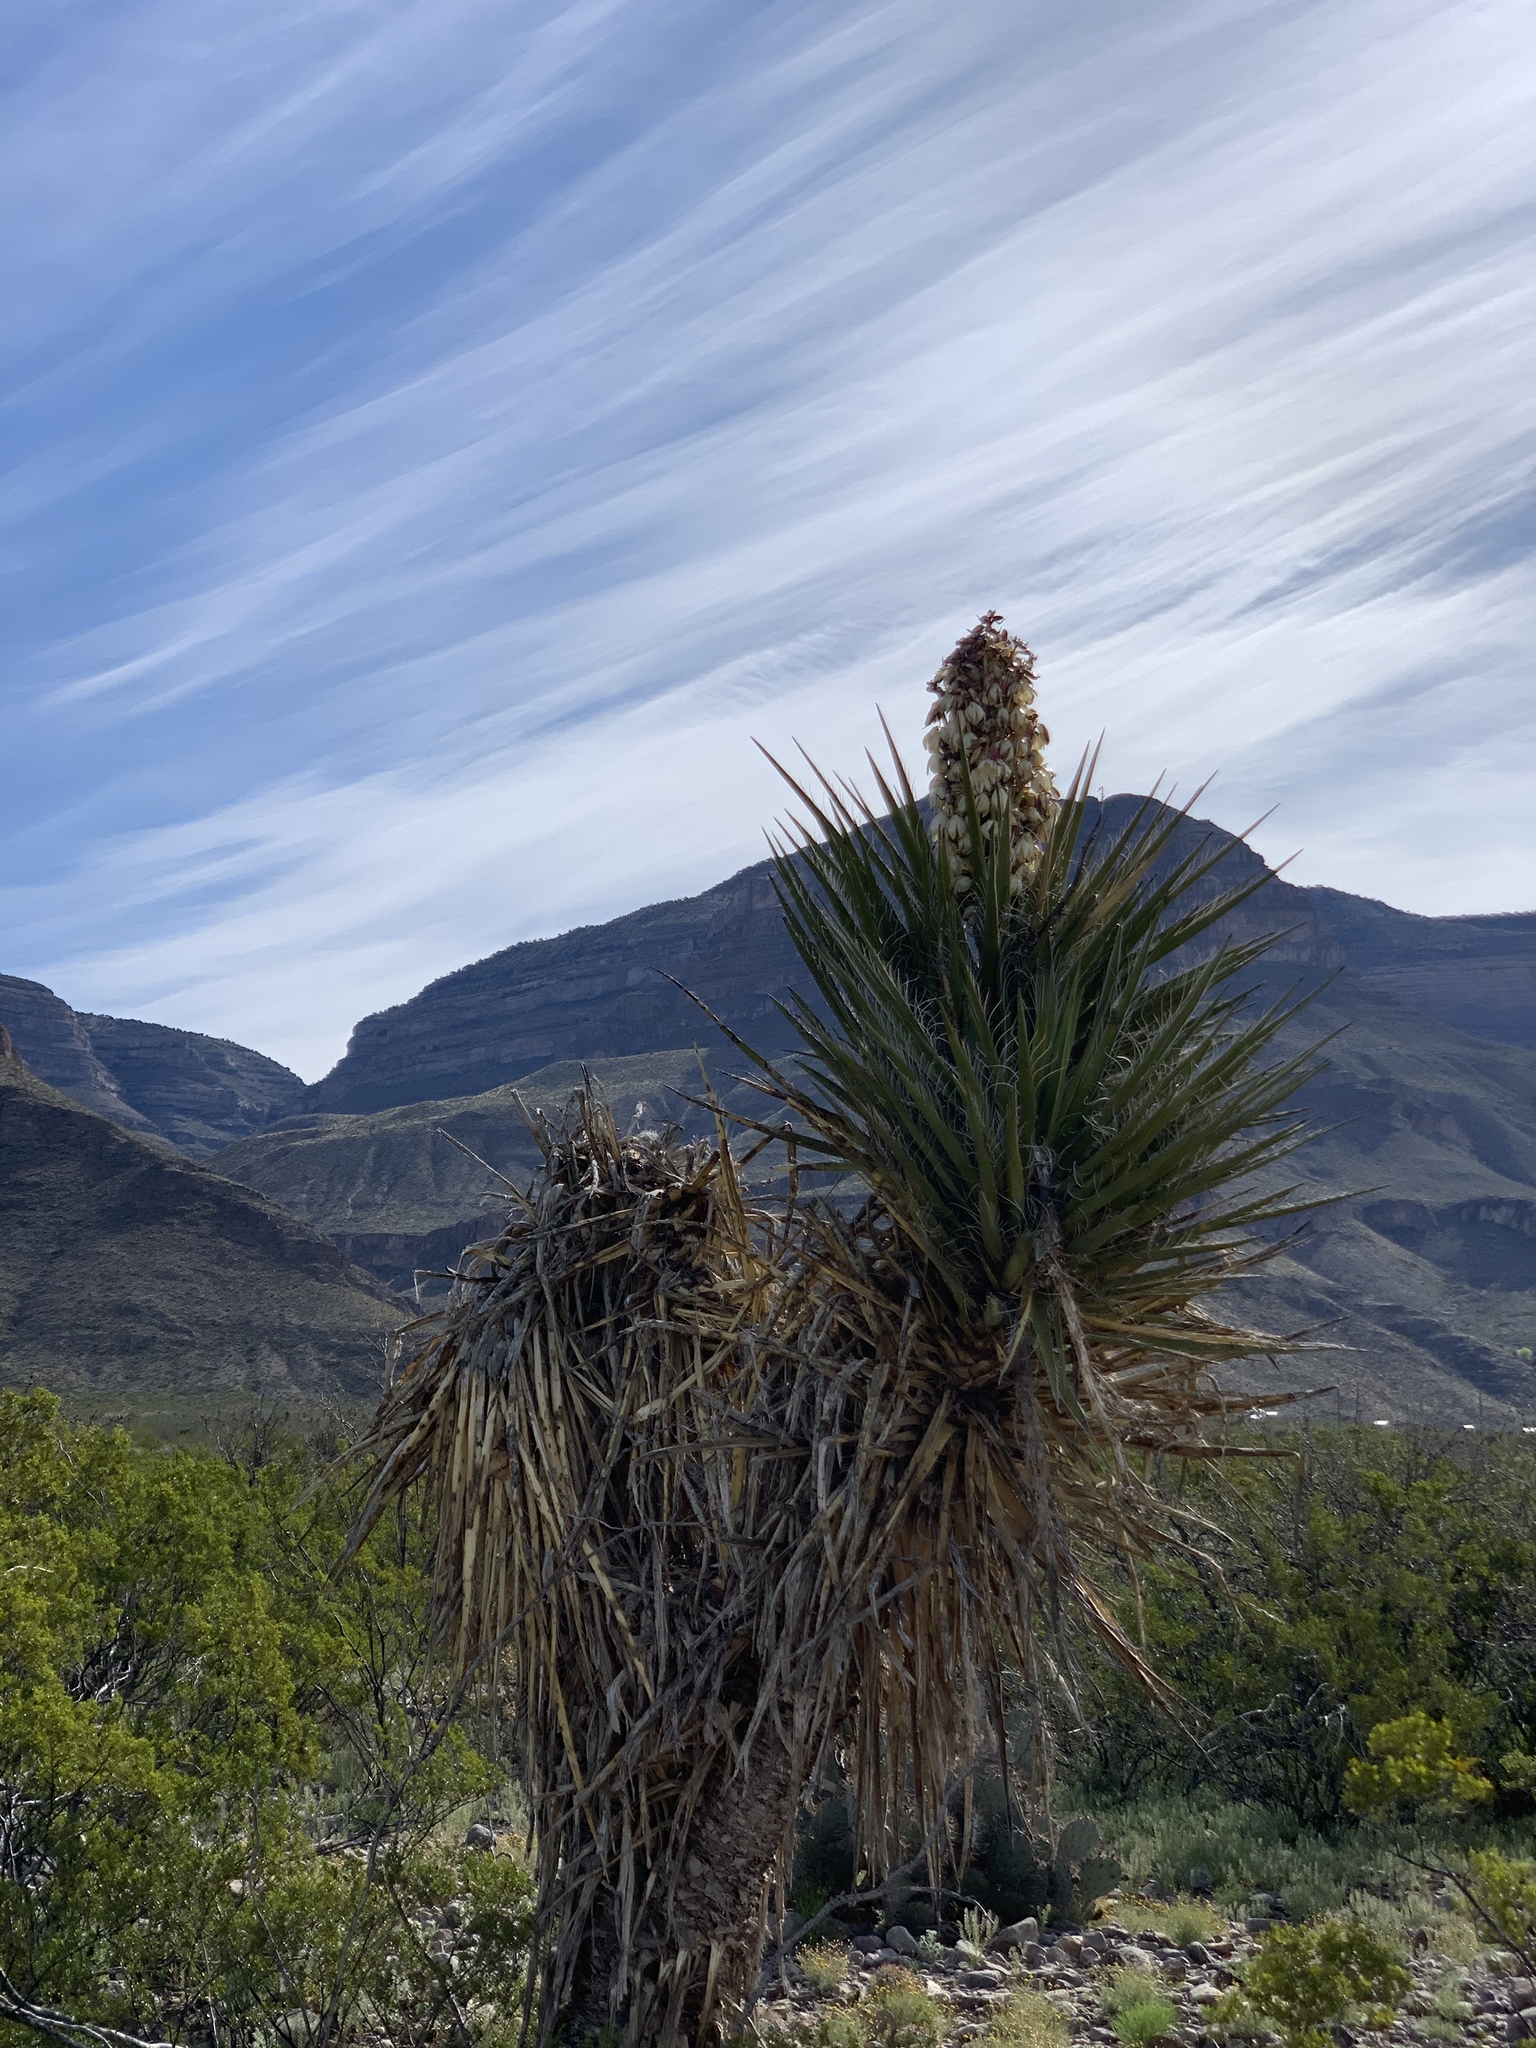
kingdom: Plantae
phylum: Tracheophyta
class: Liliopsida
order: Asparagales
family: Asparagaceae
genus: Yucca
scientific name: Yucca treculiana
